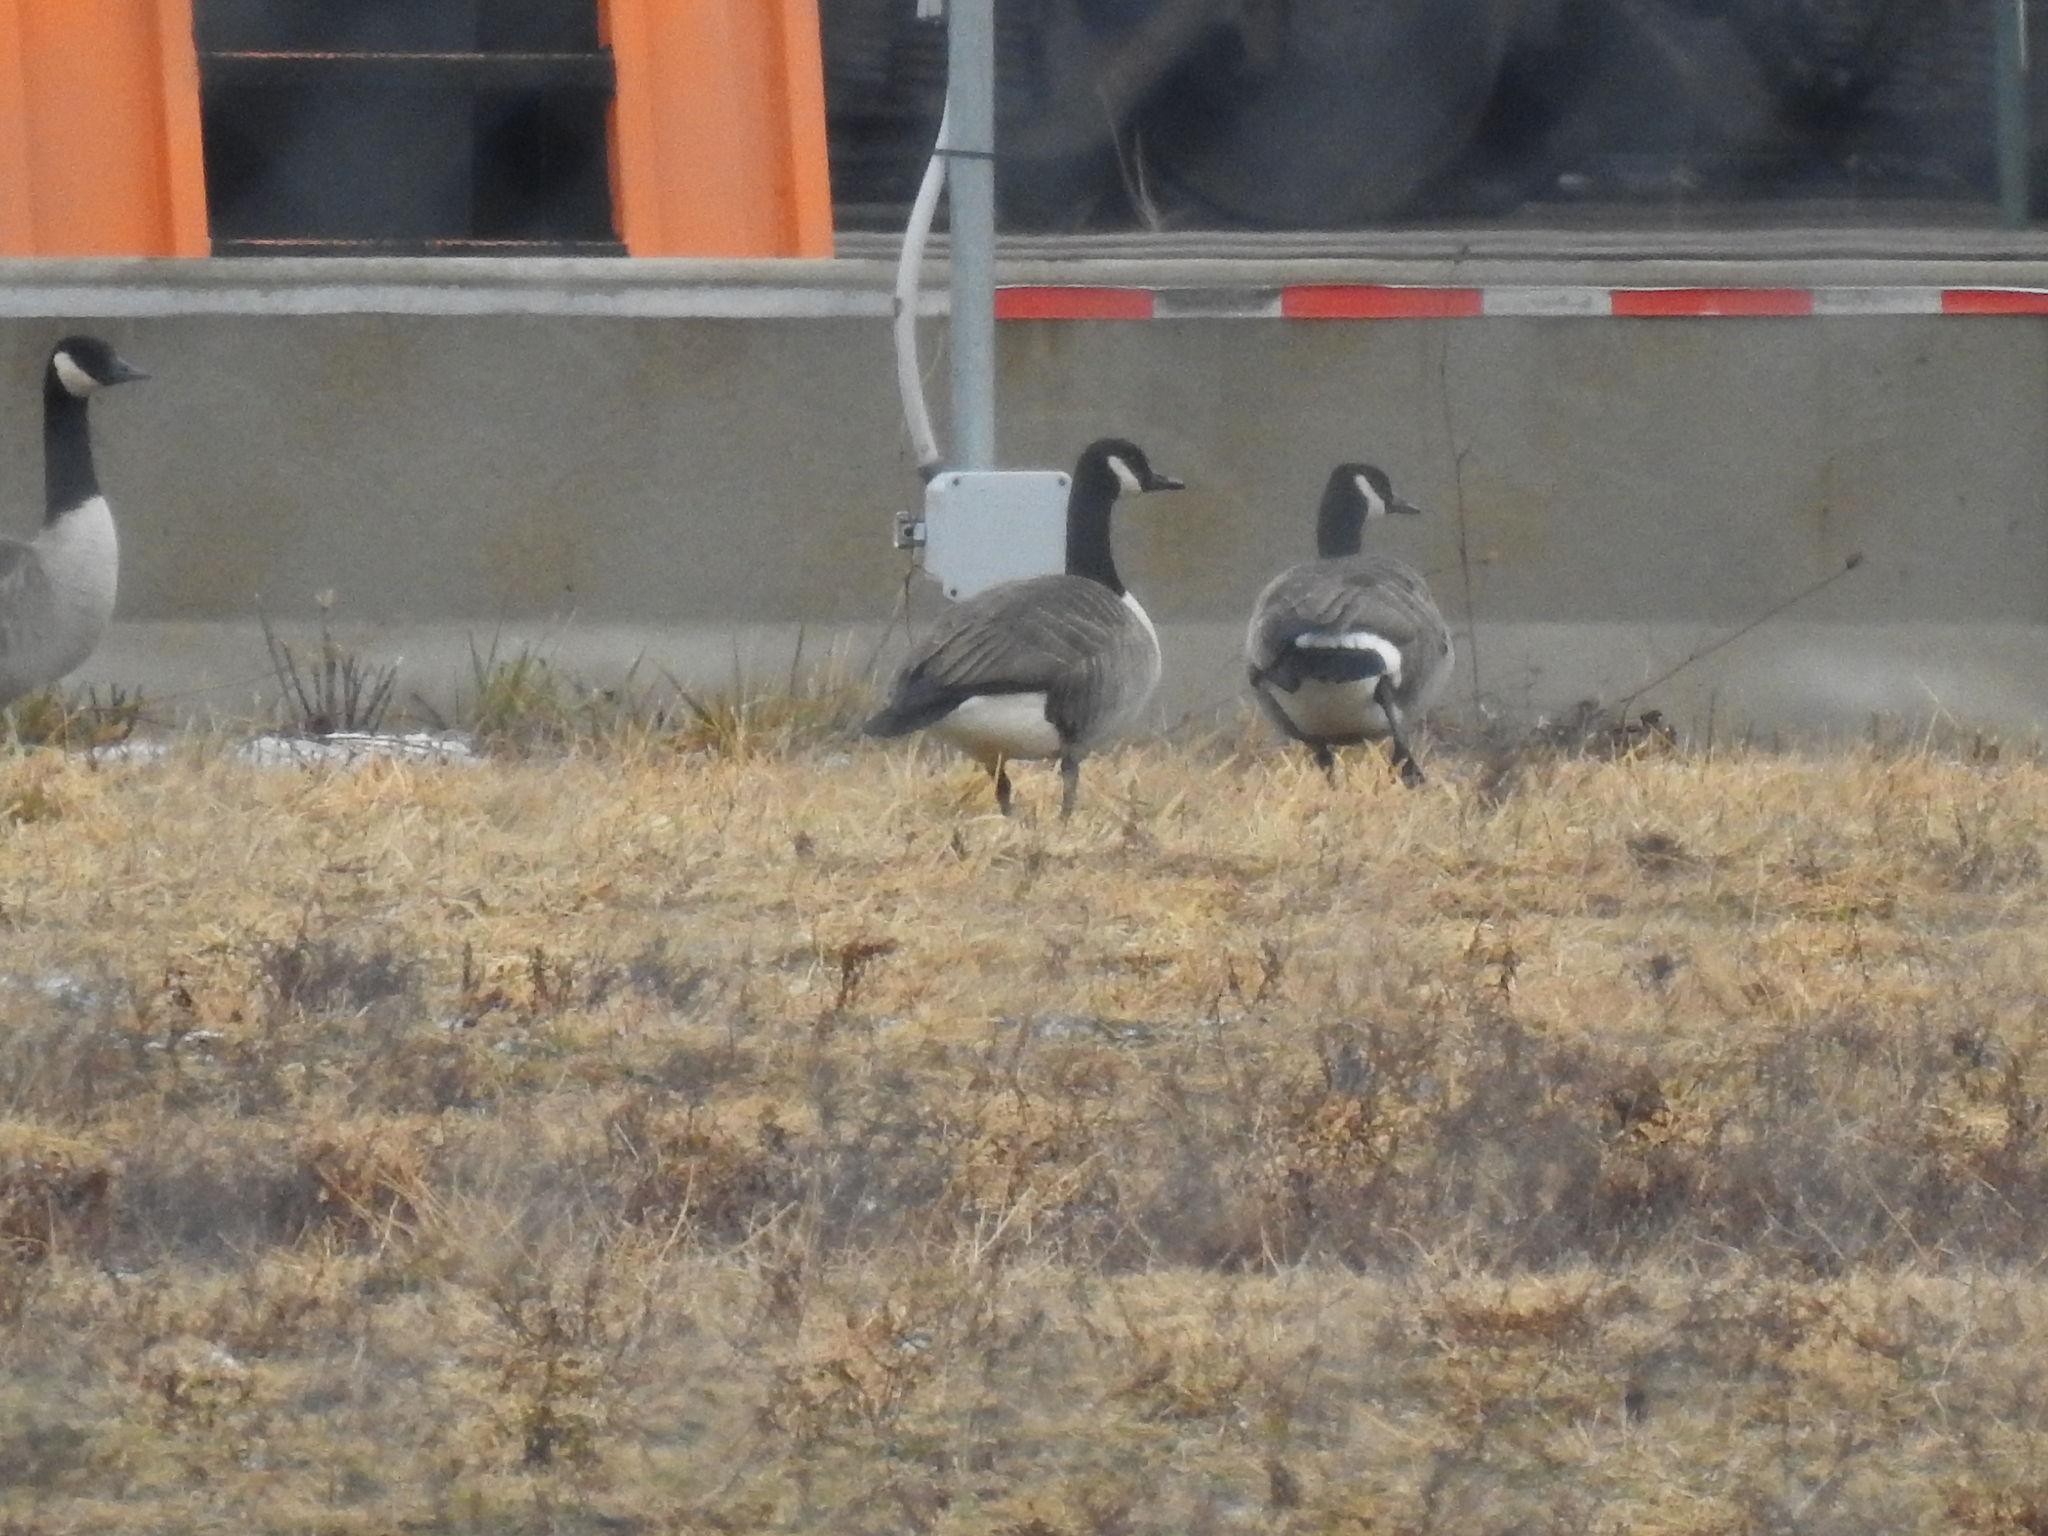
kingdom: Animalia
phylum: Chordata
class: Aves
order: Anseriformes
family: Anatidae
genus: Branta
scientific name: Branta canadensis
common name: Canada goose
